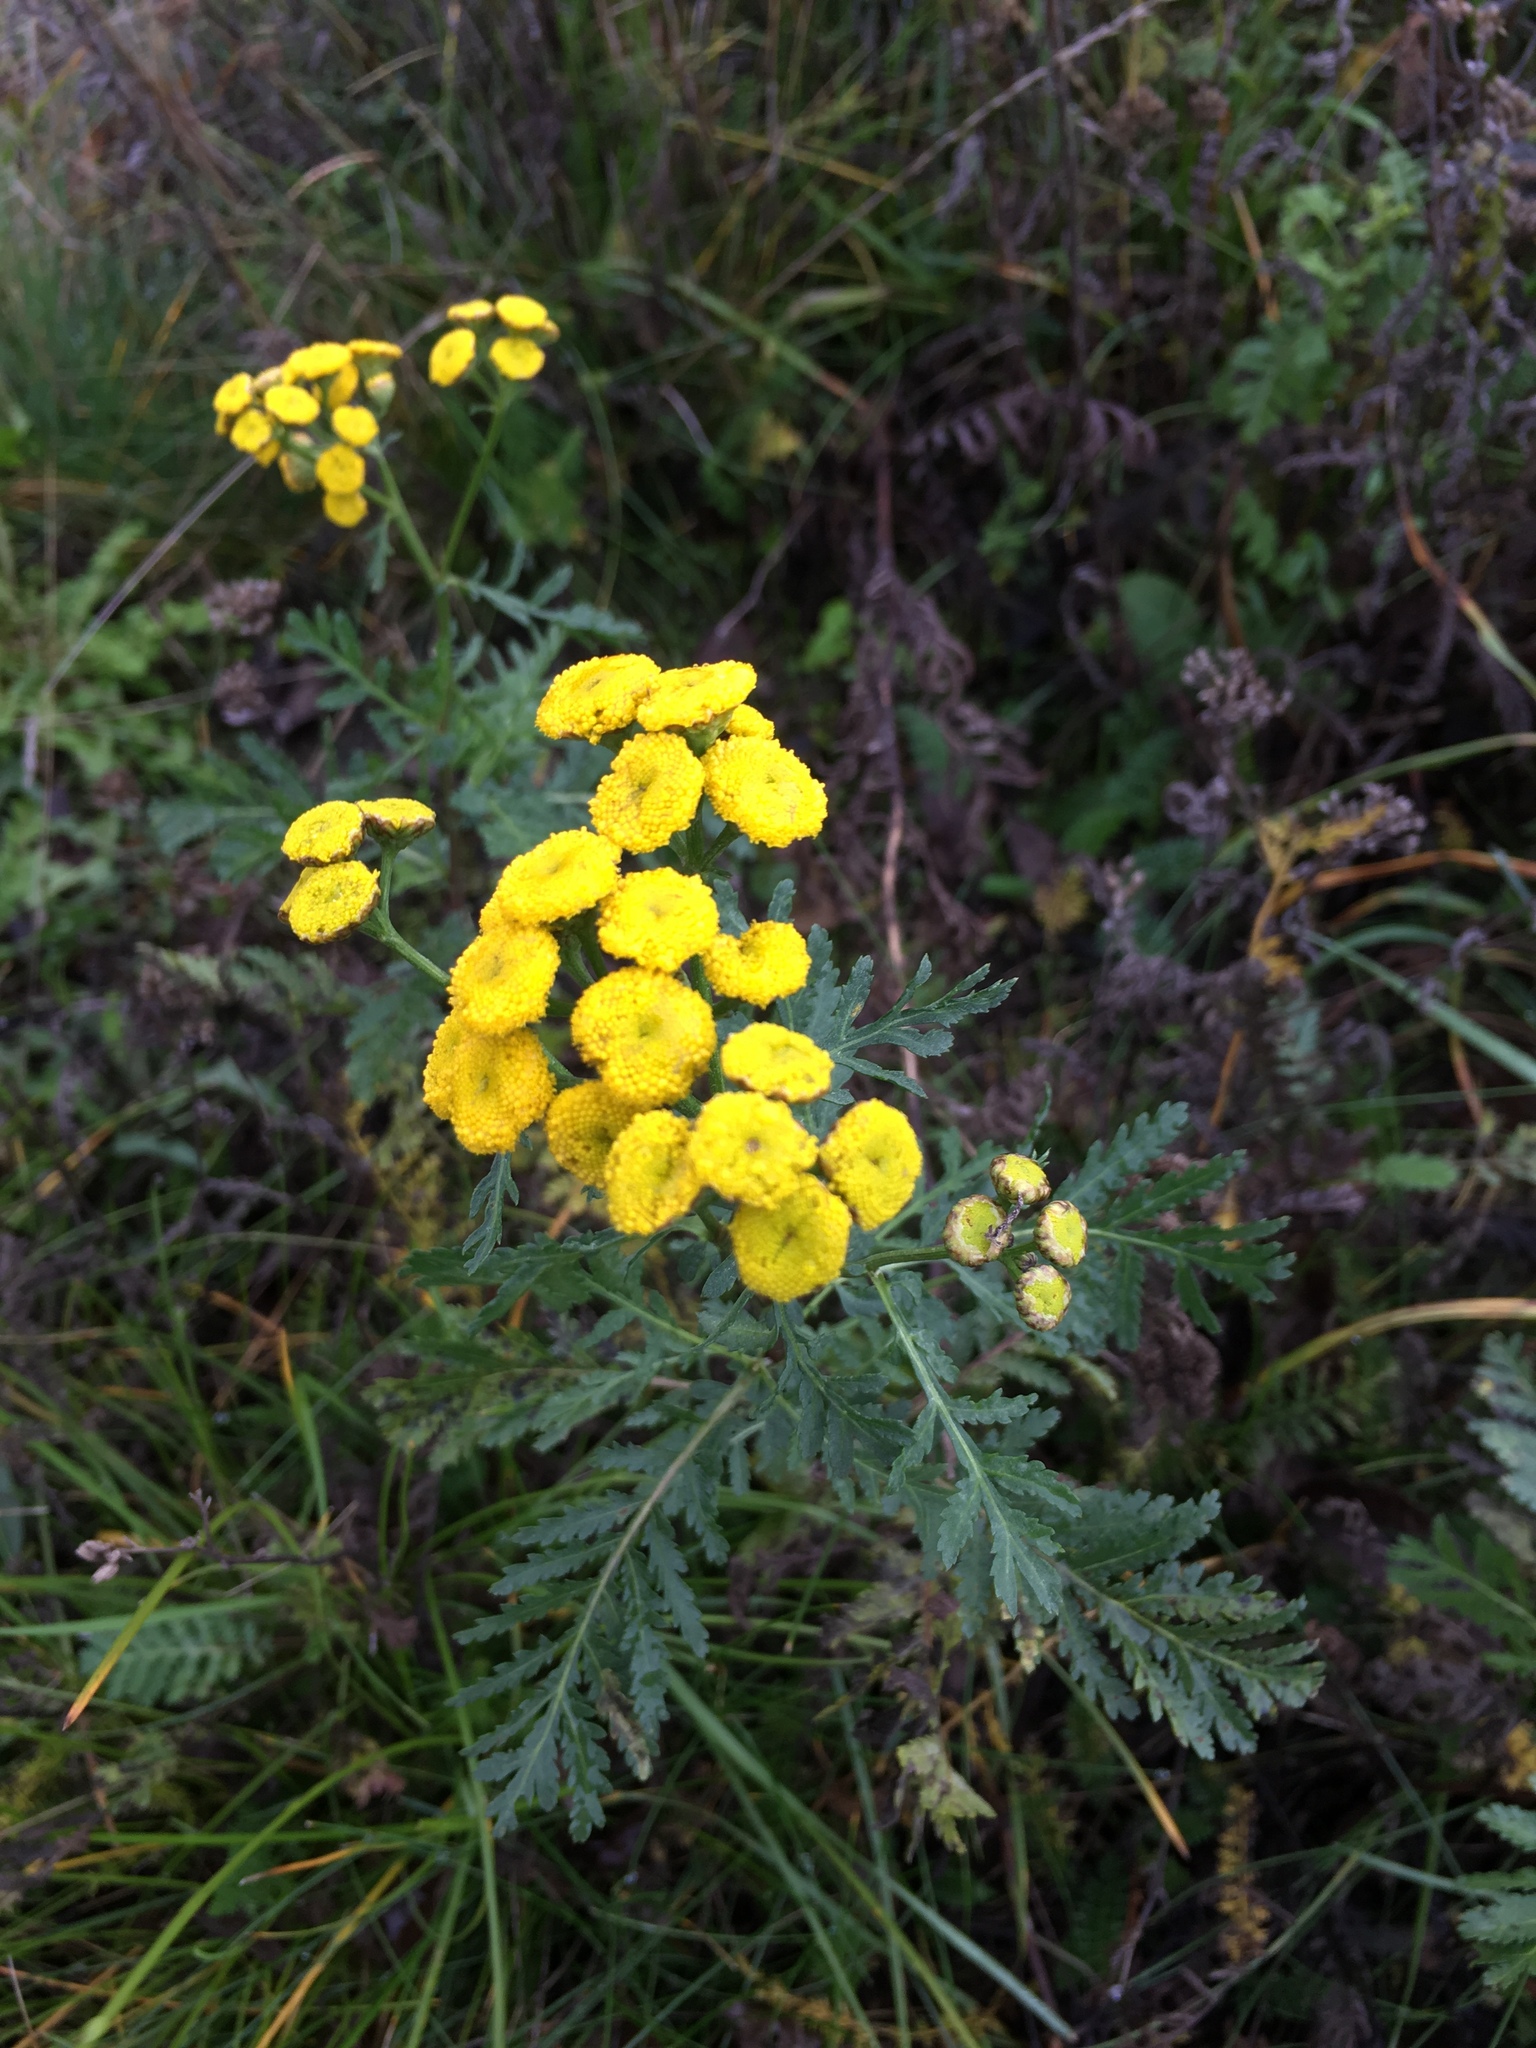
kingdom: Plantae
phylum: Tracheophyta
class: Magnoliopsida
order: Asterales
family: Asteraceae
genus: Tanacetum
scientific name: Tanacetum vulgare
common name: Common tansy
